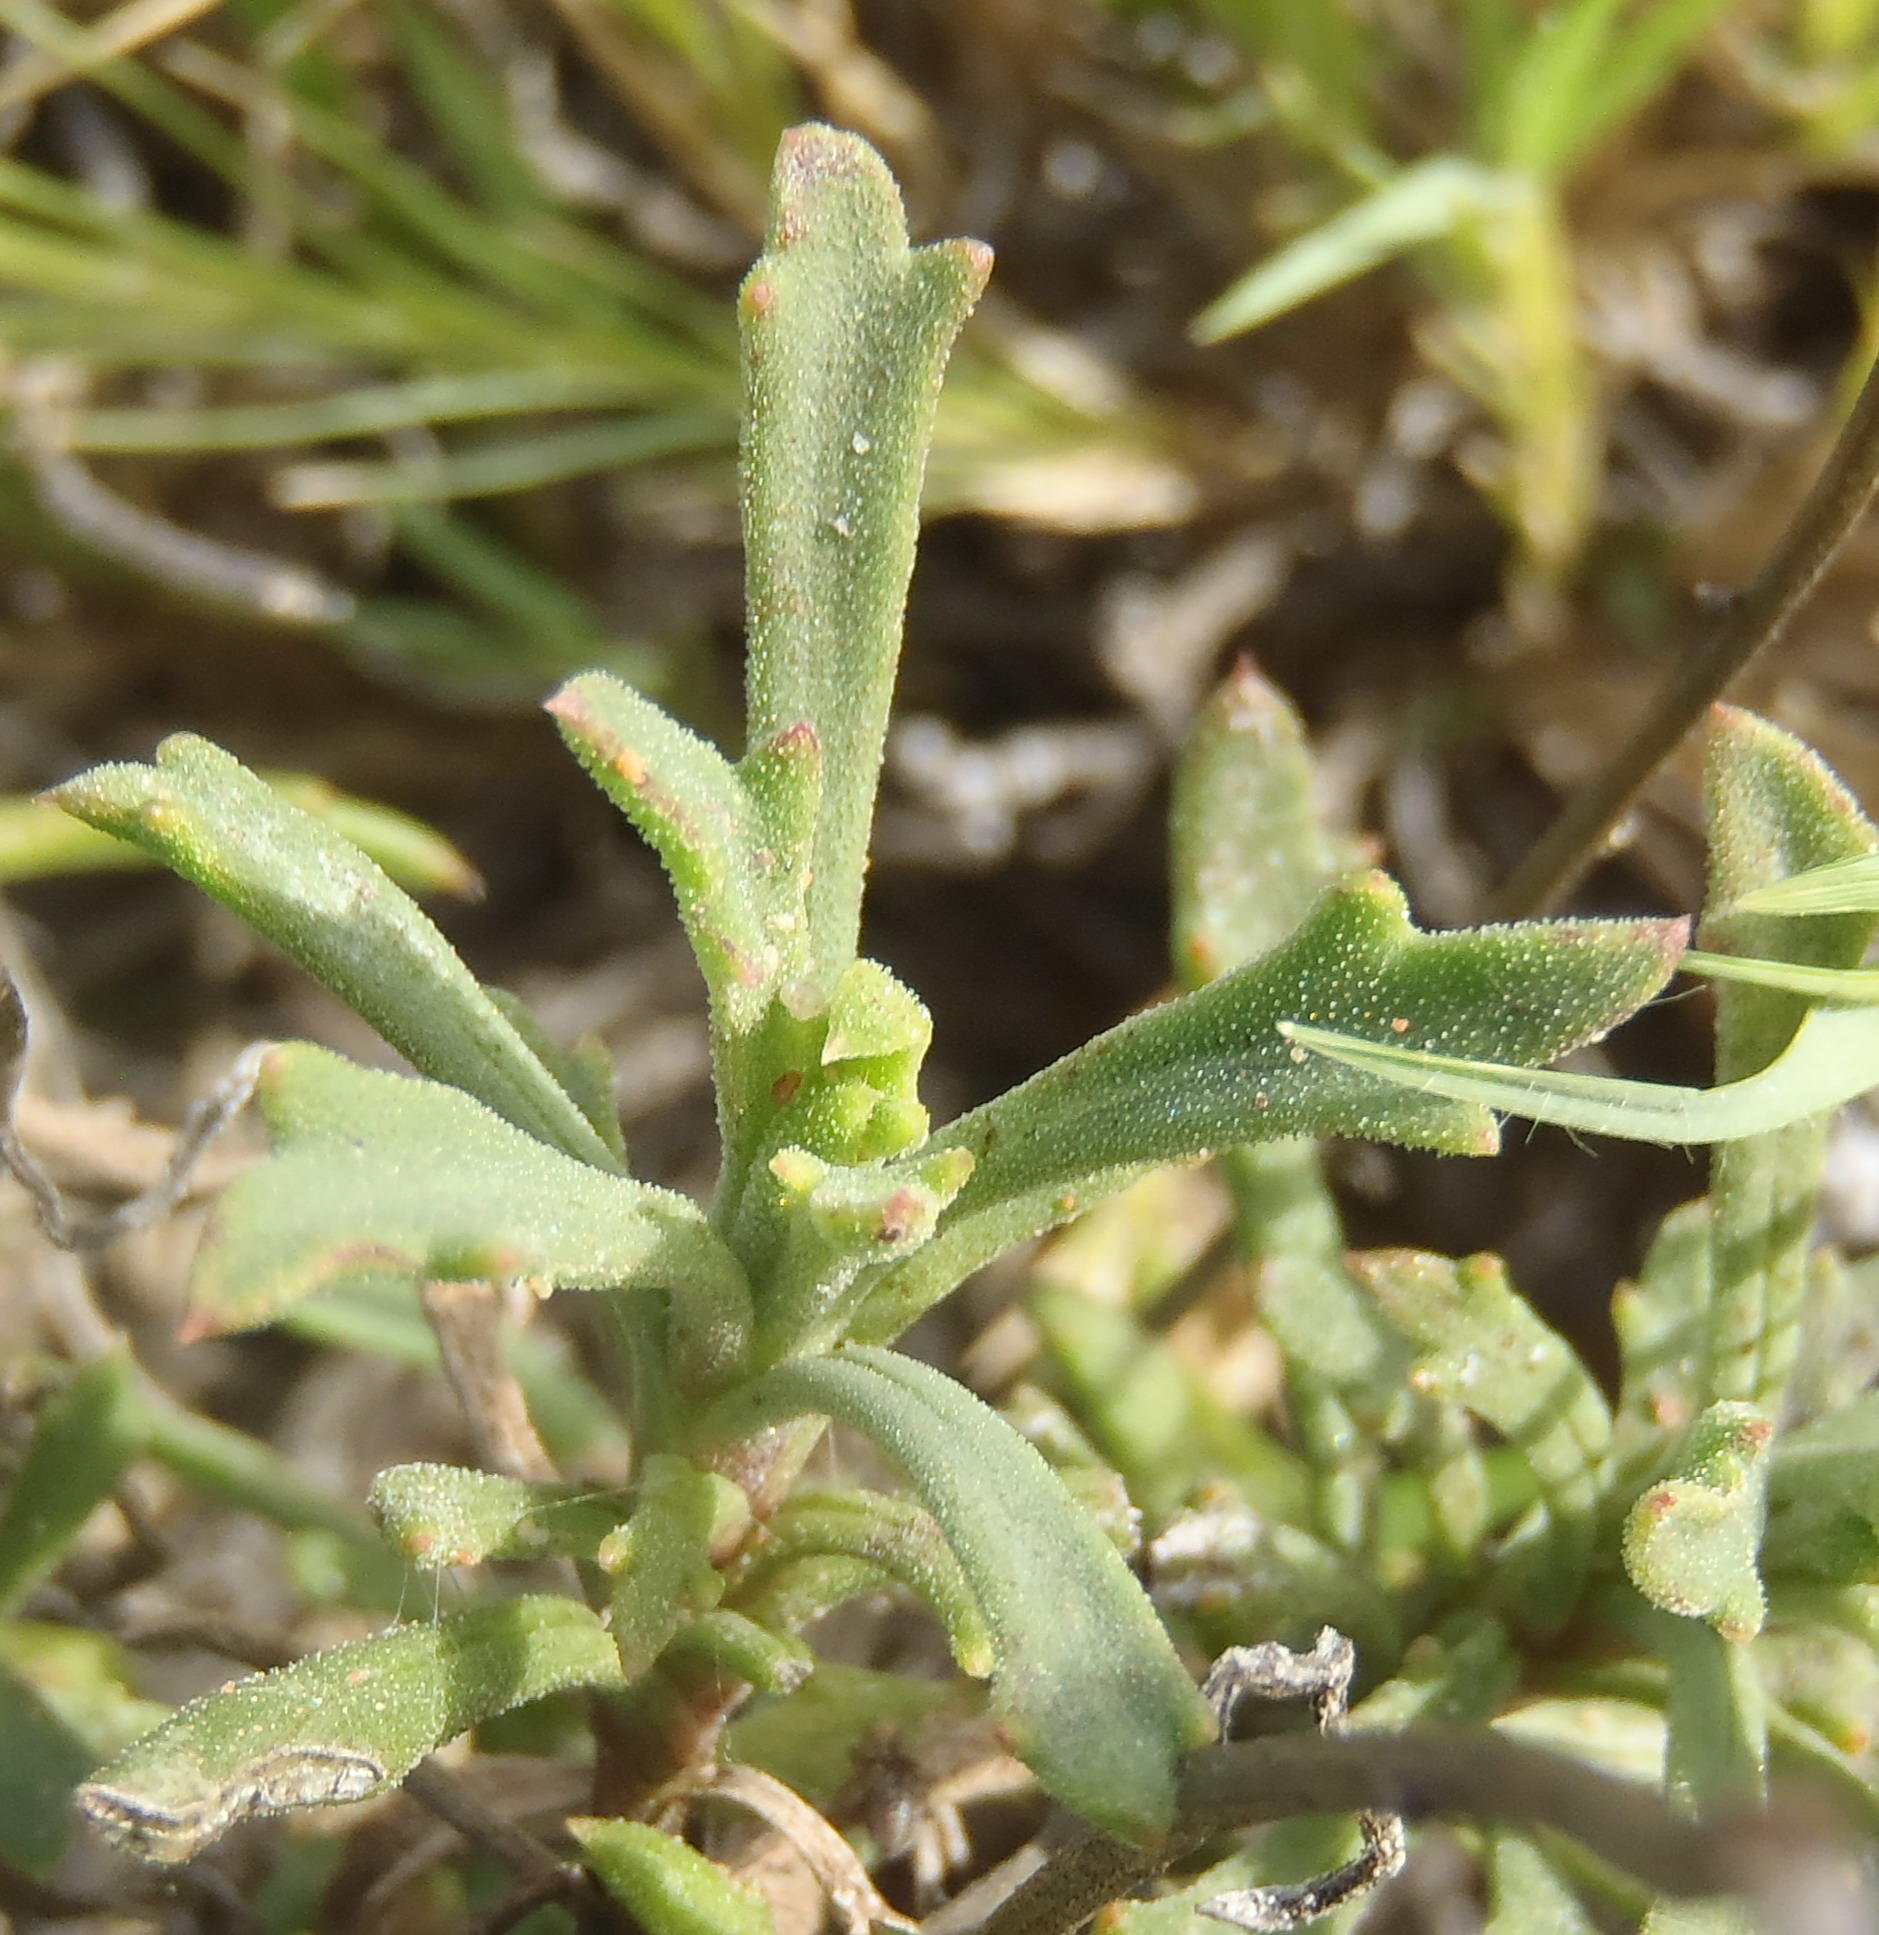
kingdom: Plantae
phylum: Tracheophyta
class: Magnoliopsida
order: Asterales
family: Asteraceae
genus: Osteospermum
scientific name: Osteospermum scariosum
